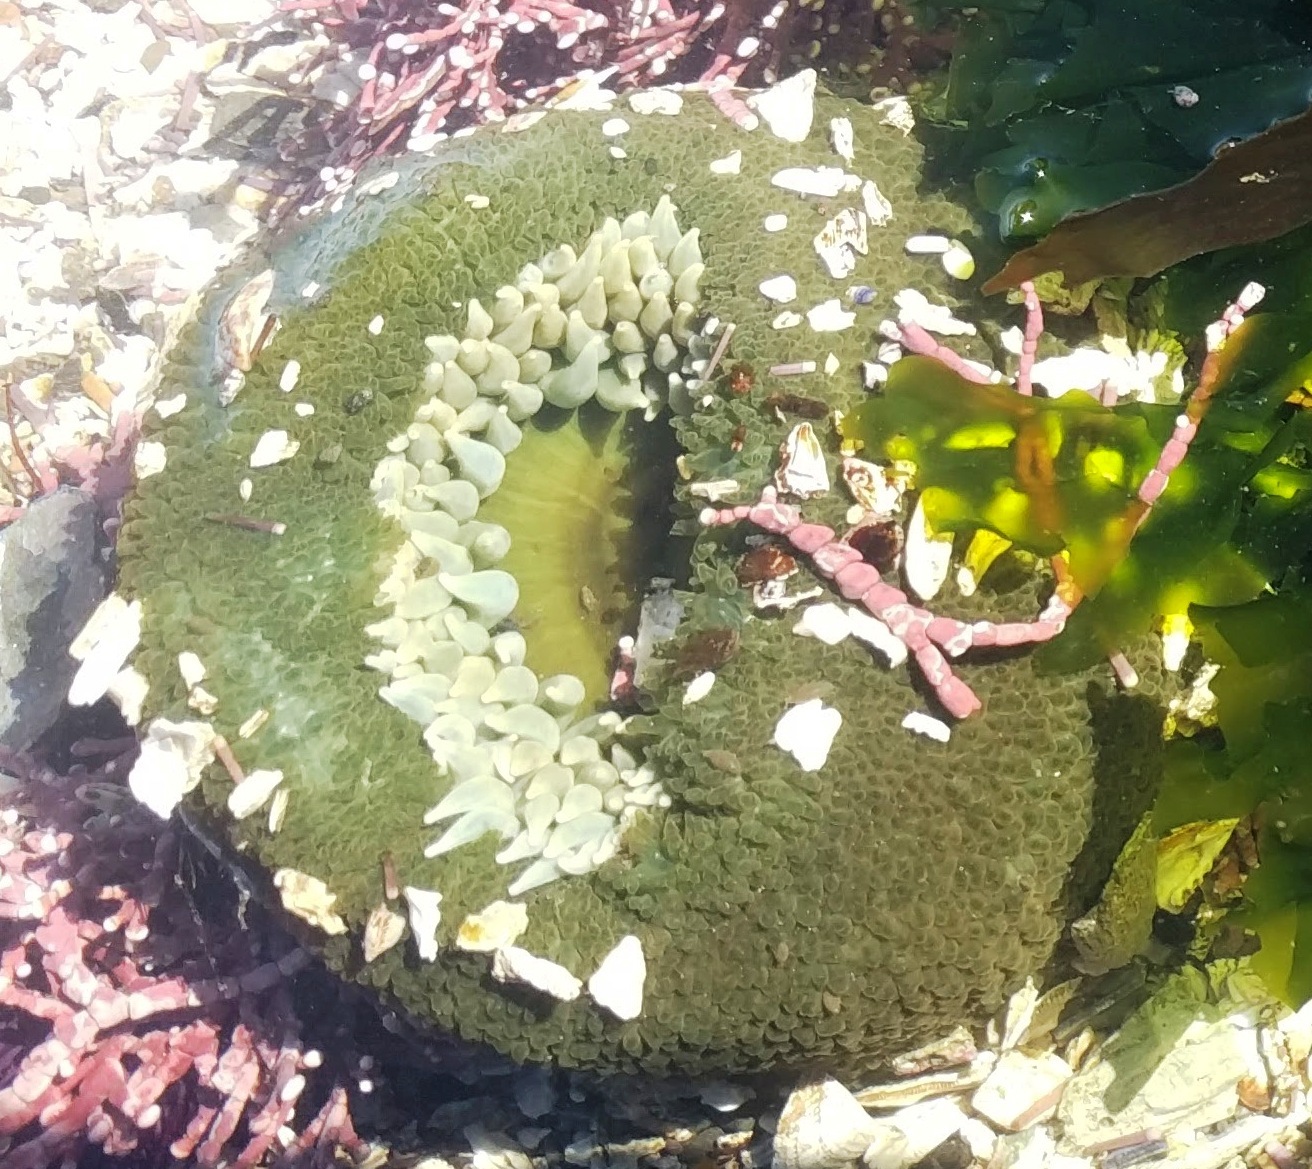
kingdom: Animalia
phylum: Cnidaria
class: Anthozoa
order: Actiniaria
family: Actiniidae
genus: Anthopleura
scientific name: Anthopleura xanthogrammica
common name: Giant green anemone
